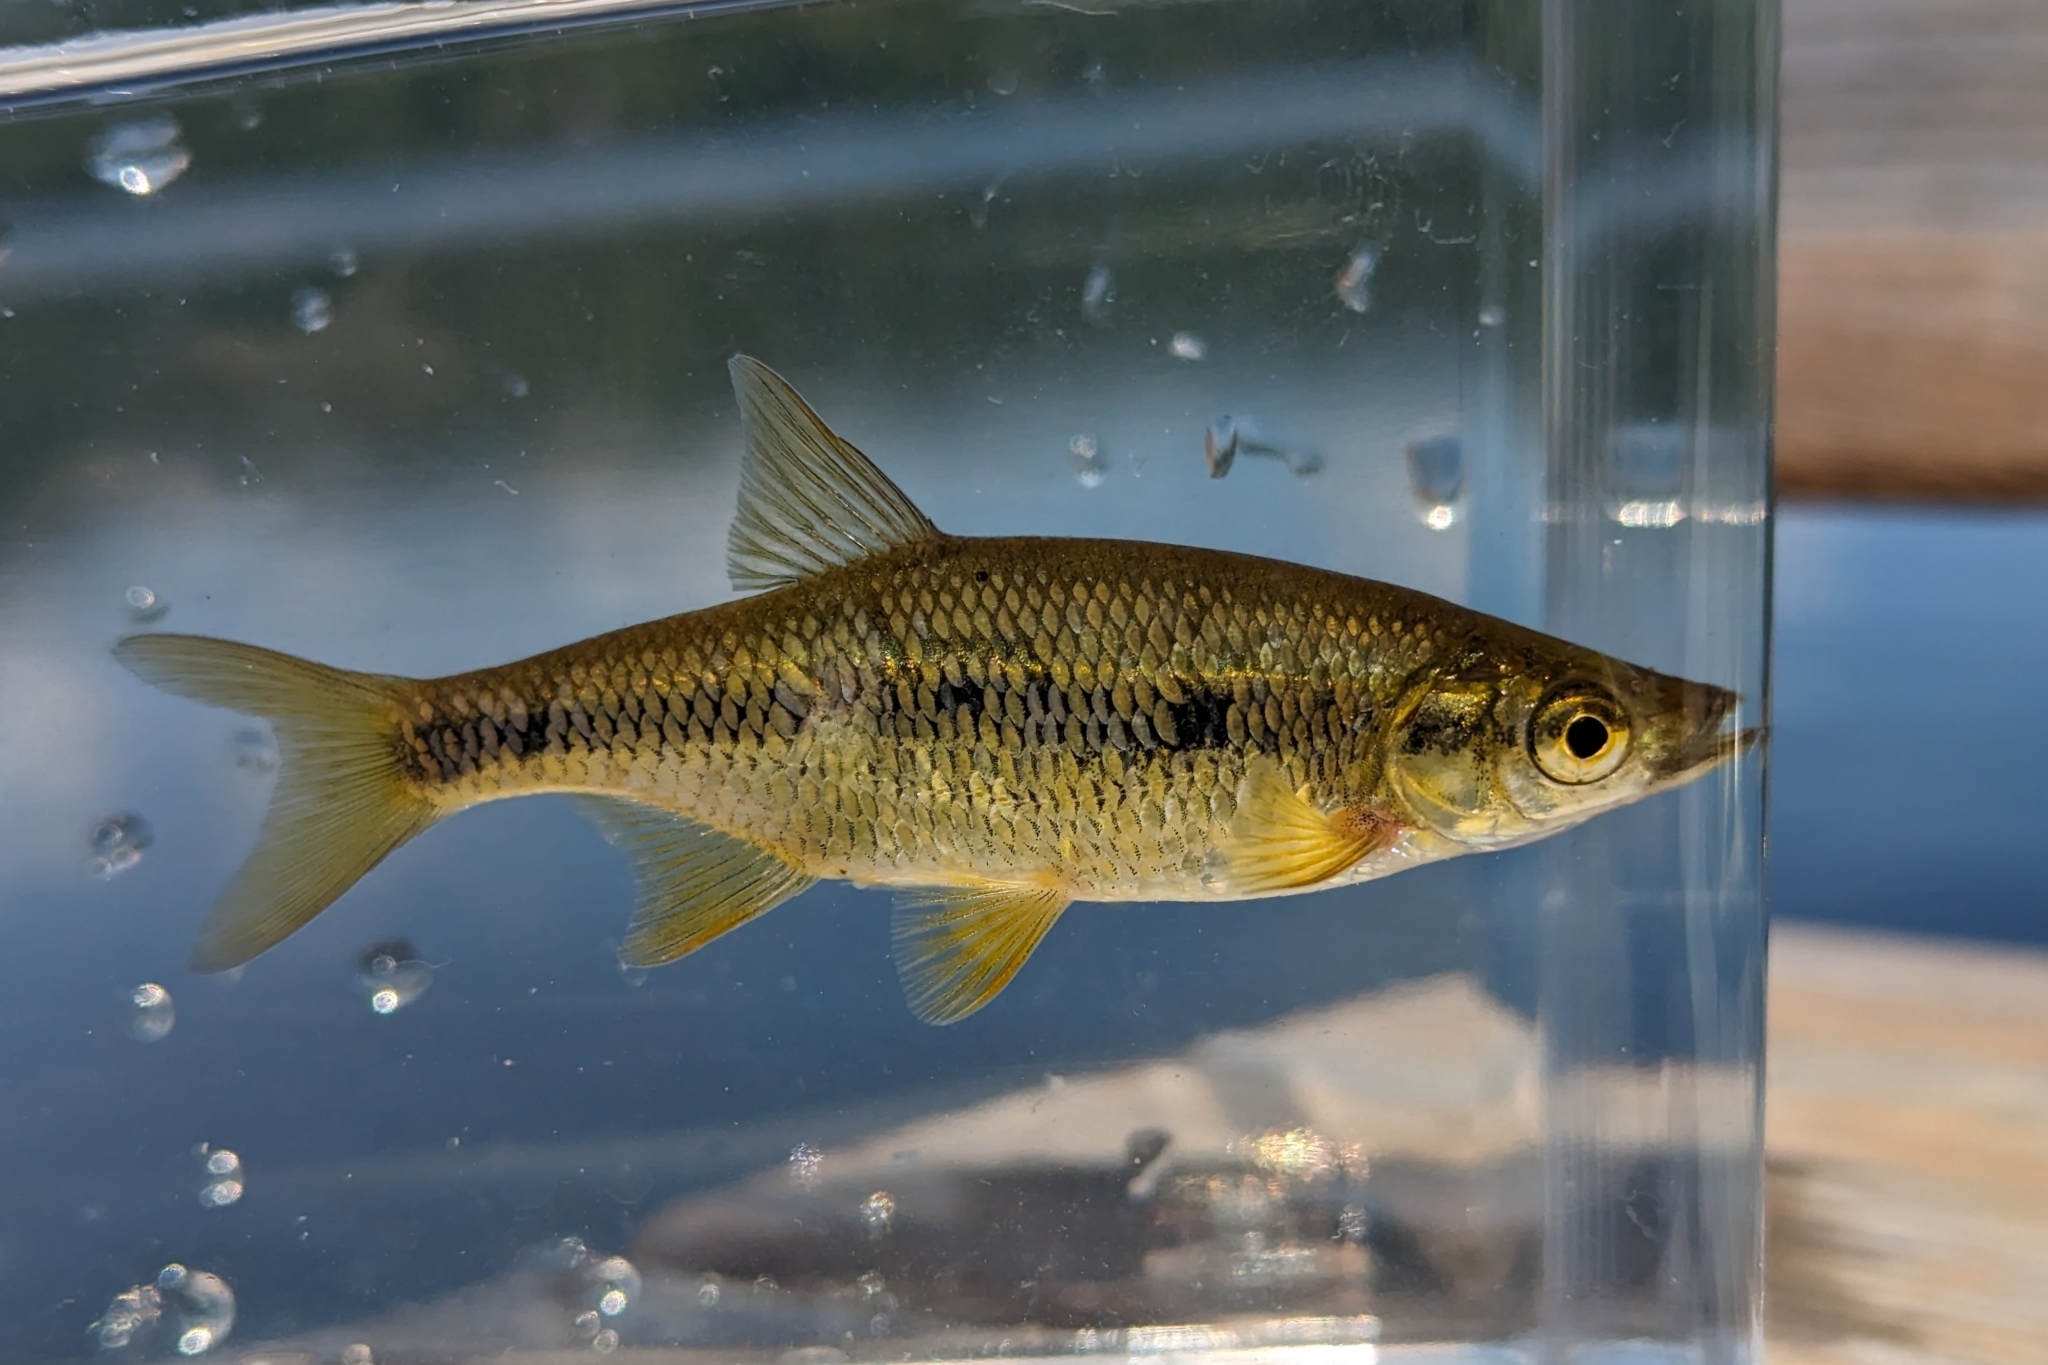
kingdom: Animalia
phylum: Chordata
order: Cypriniformes
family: Cyprinidae
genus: Notemigonus
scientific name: Notemigonus crysoleucas
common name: Golden shiner
